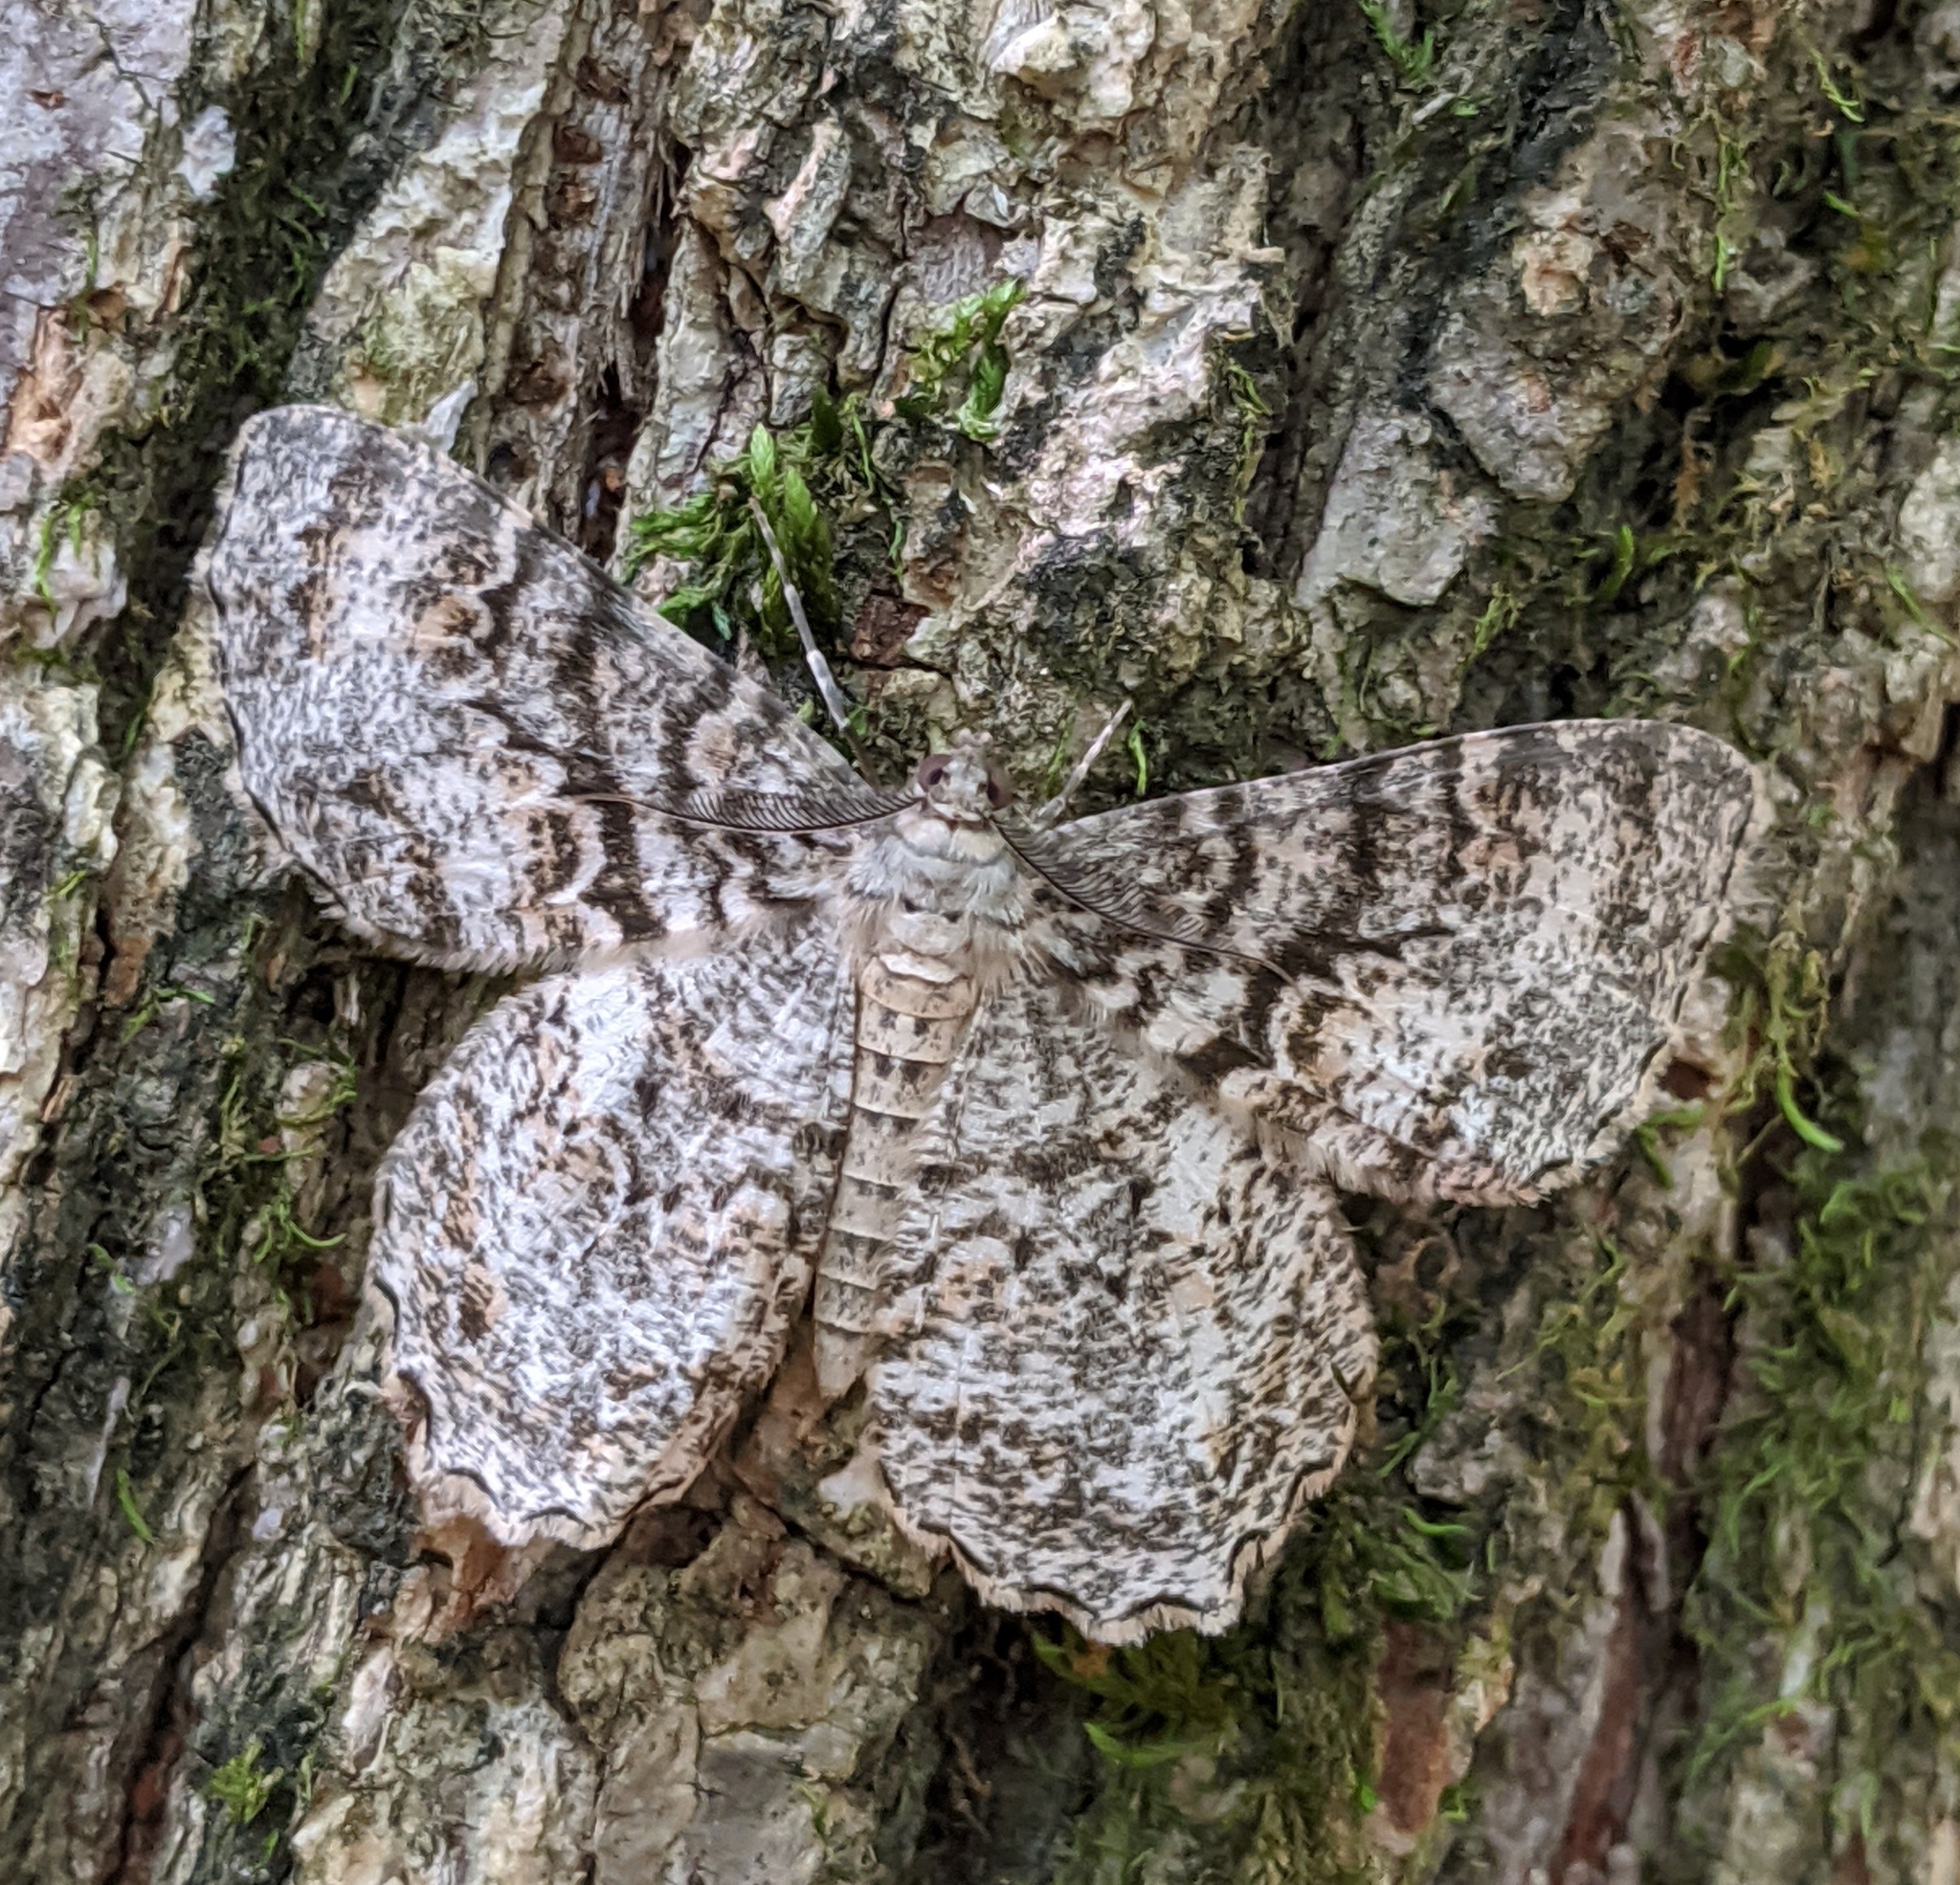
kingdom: Animalia
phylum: Arthropoda
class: Insecta
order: Lepidoptera
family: Geometridae
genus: Epimecis
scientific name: Epimecis hortaria
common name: Tulip-tree beauty
